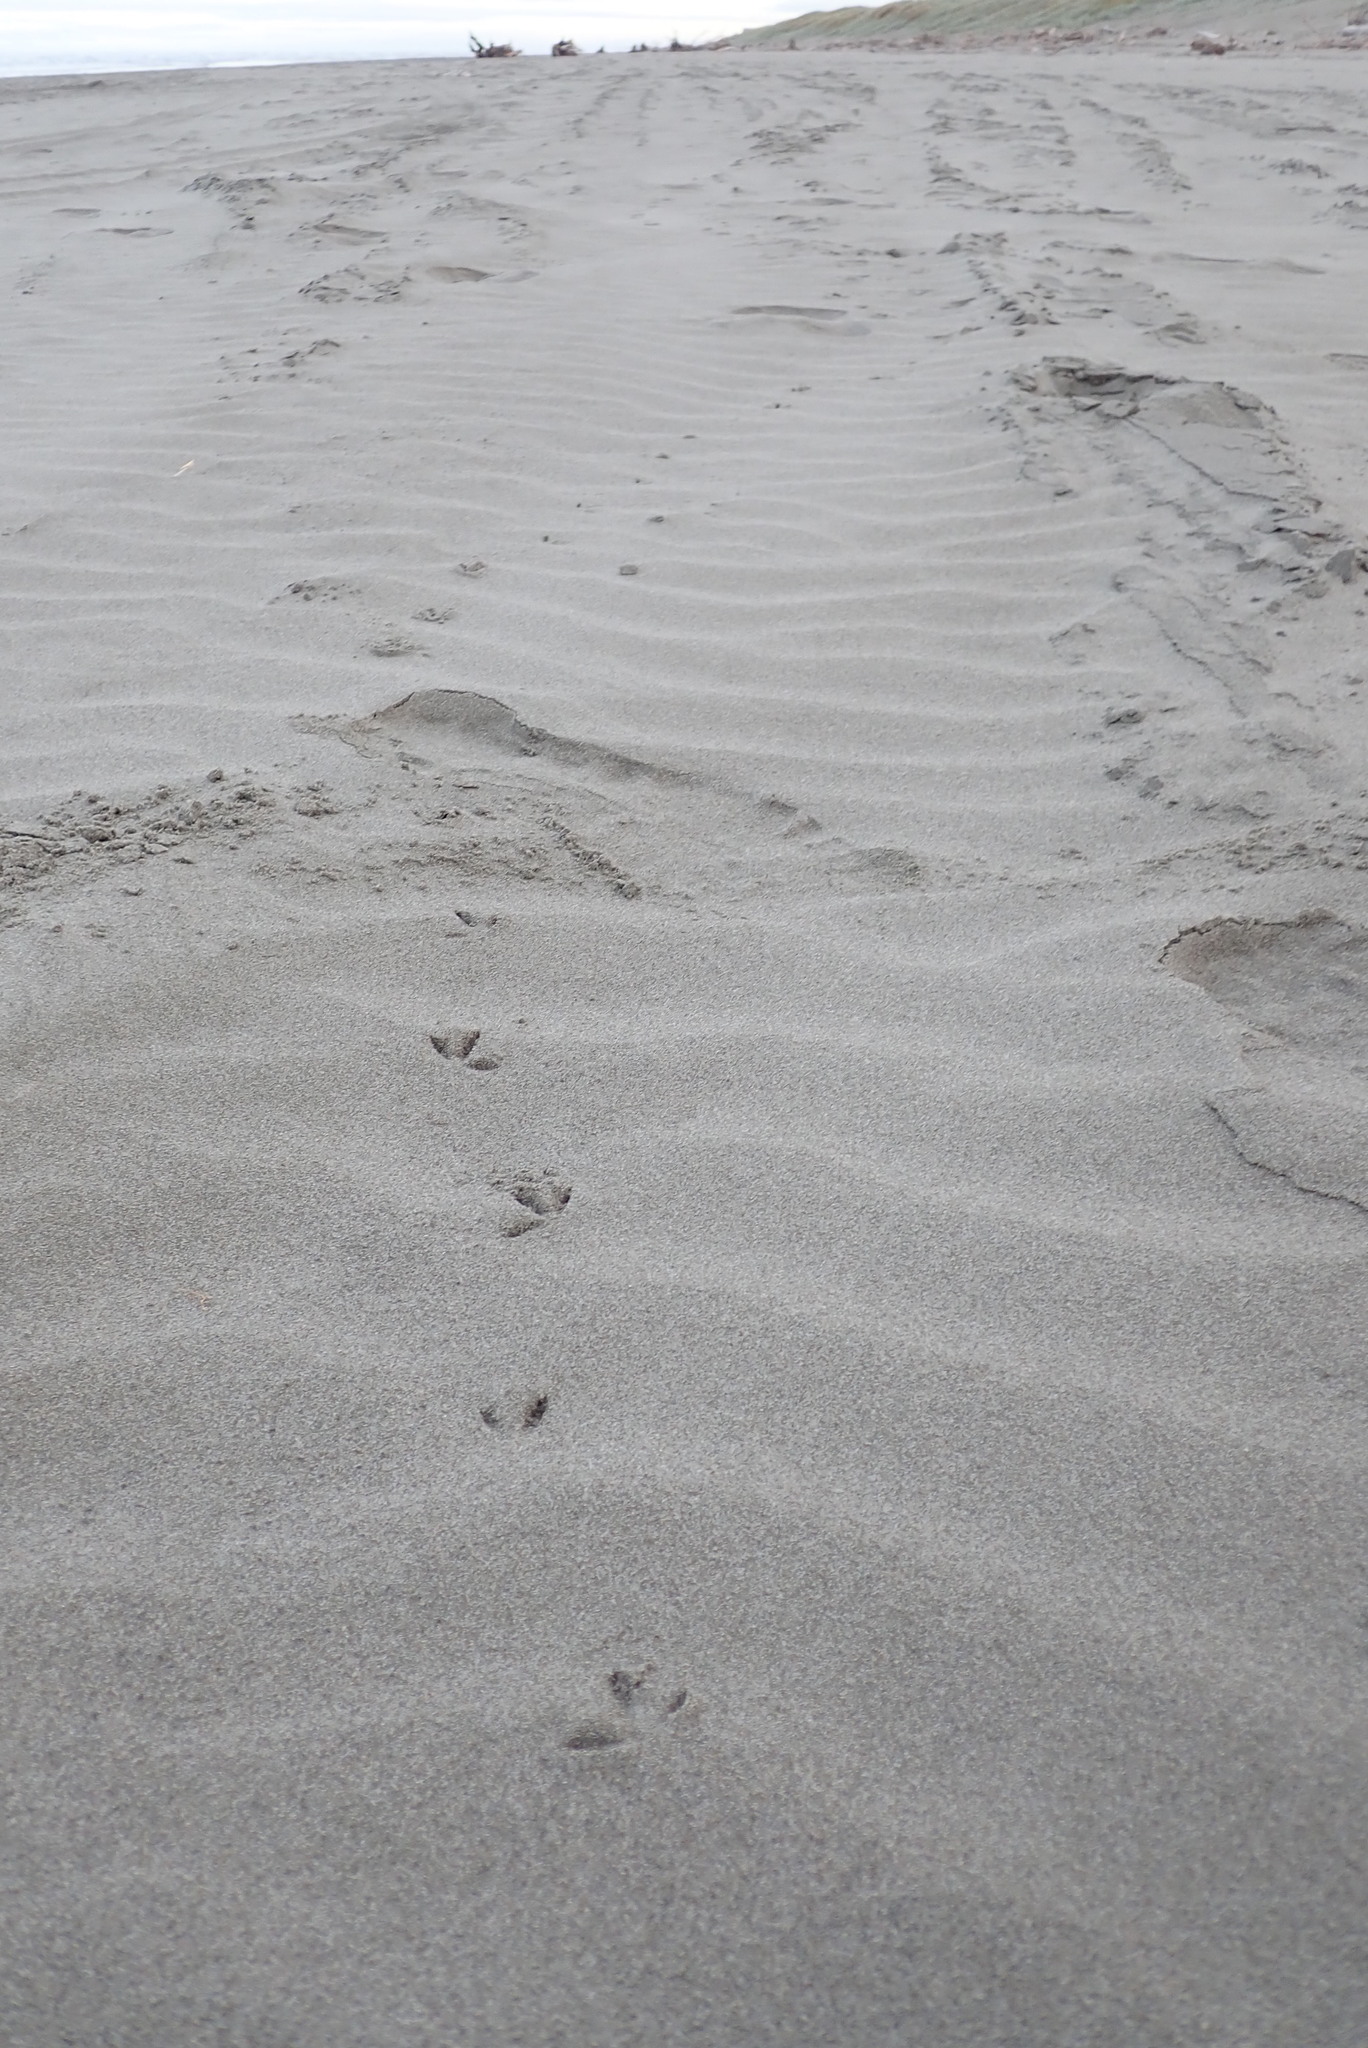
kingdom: Animalia
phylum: Chordata
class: Aves
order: Charadriiformes
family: Charadriidae
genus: Anarhynchus
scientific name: Anarhynchus
